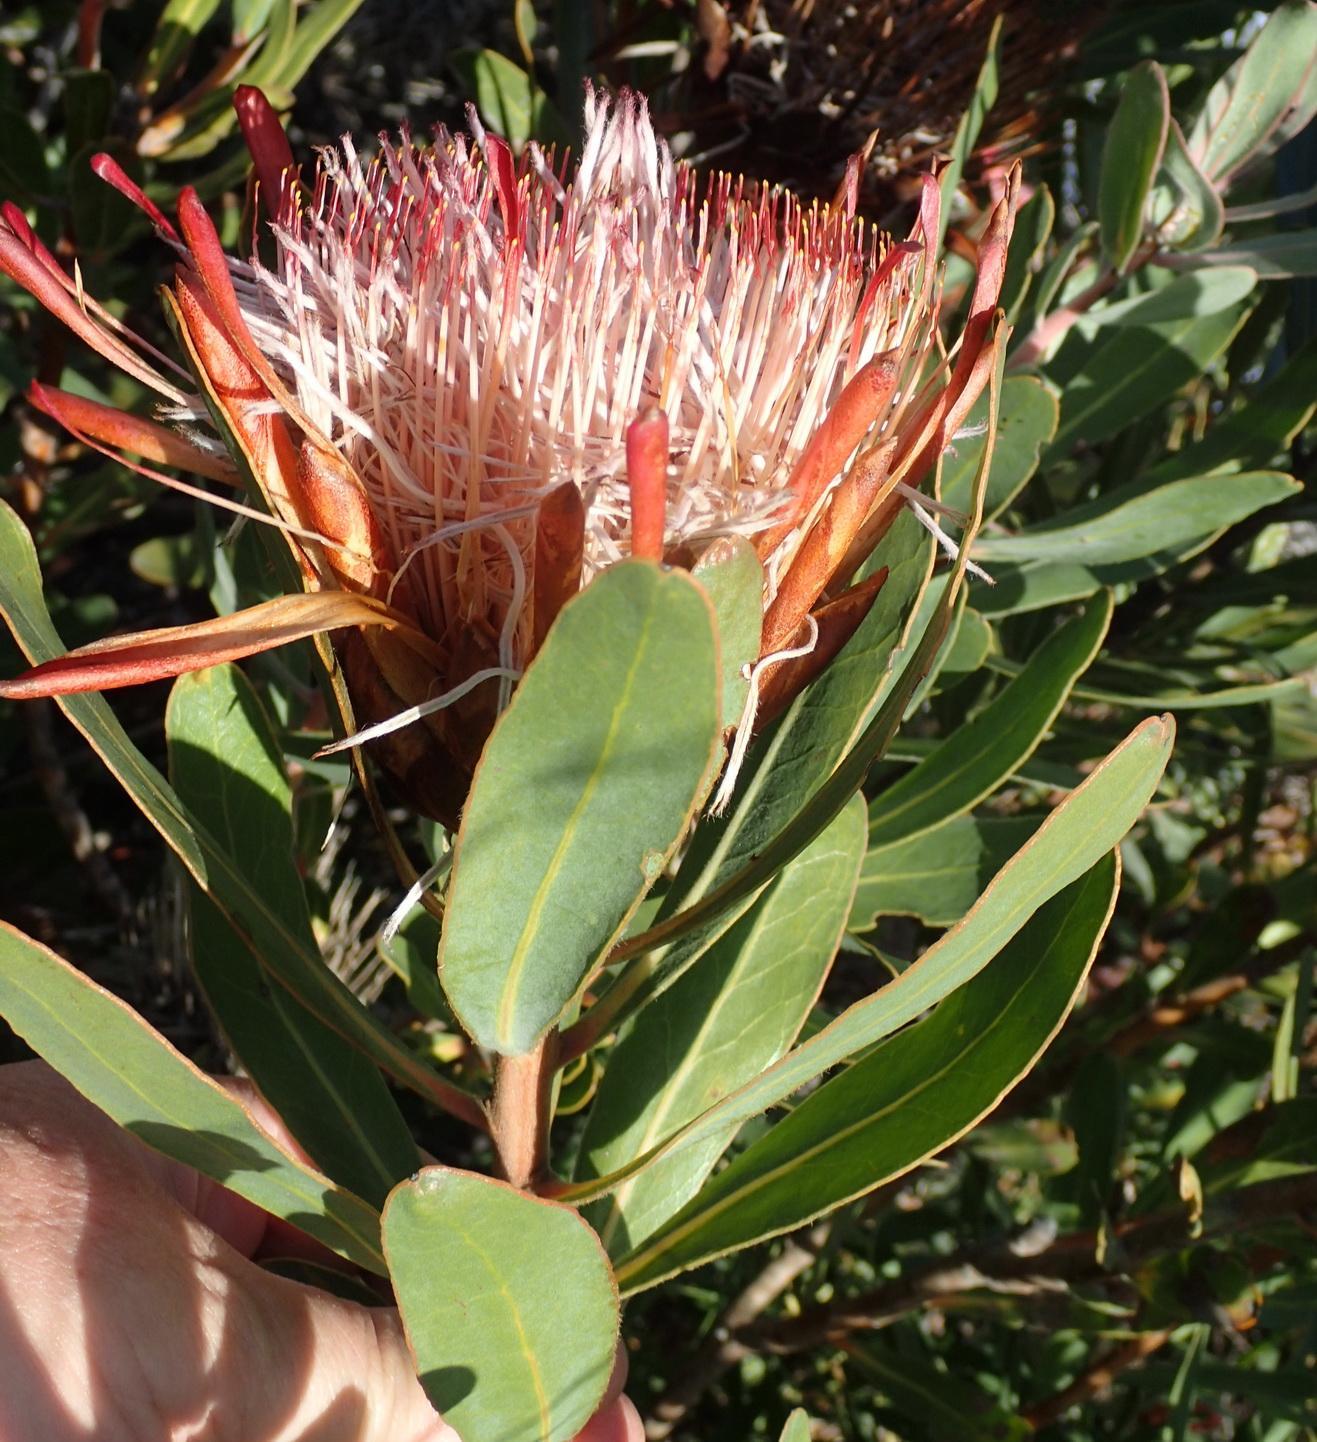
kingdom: Plantae
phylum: Tracheophyta
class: Magnoliopsida
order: Proteales
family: Proteaceae
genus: Protea
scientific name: Protea susannae
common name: Foetid-leaf sugarbush
